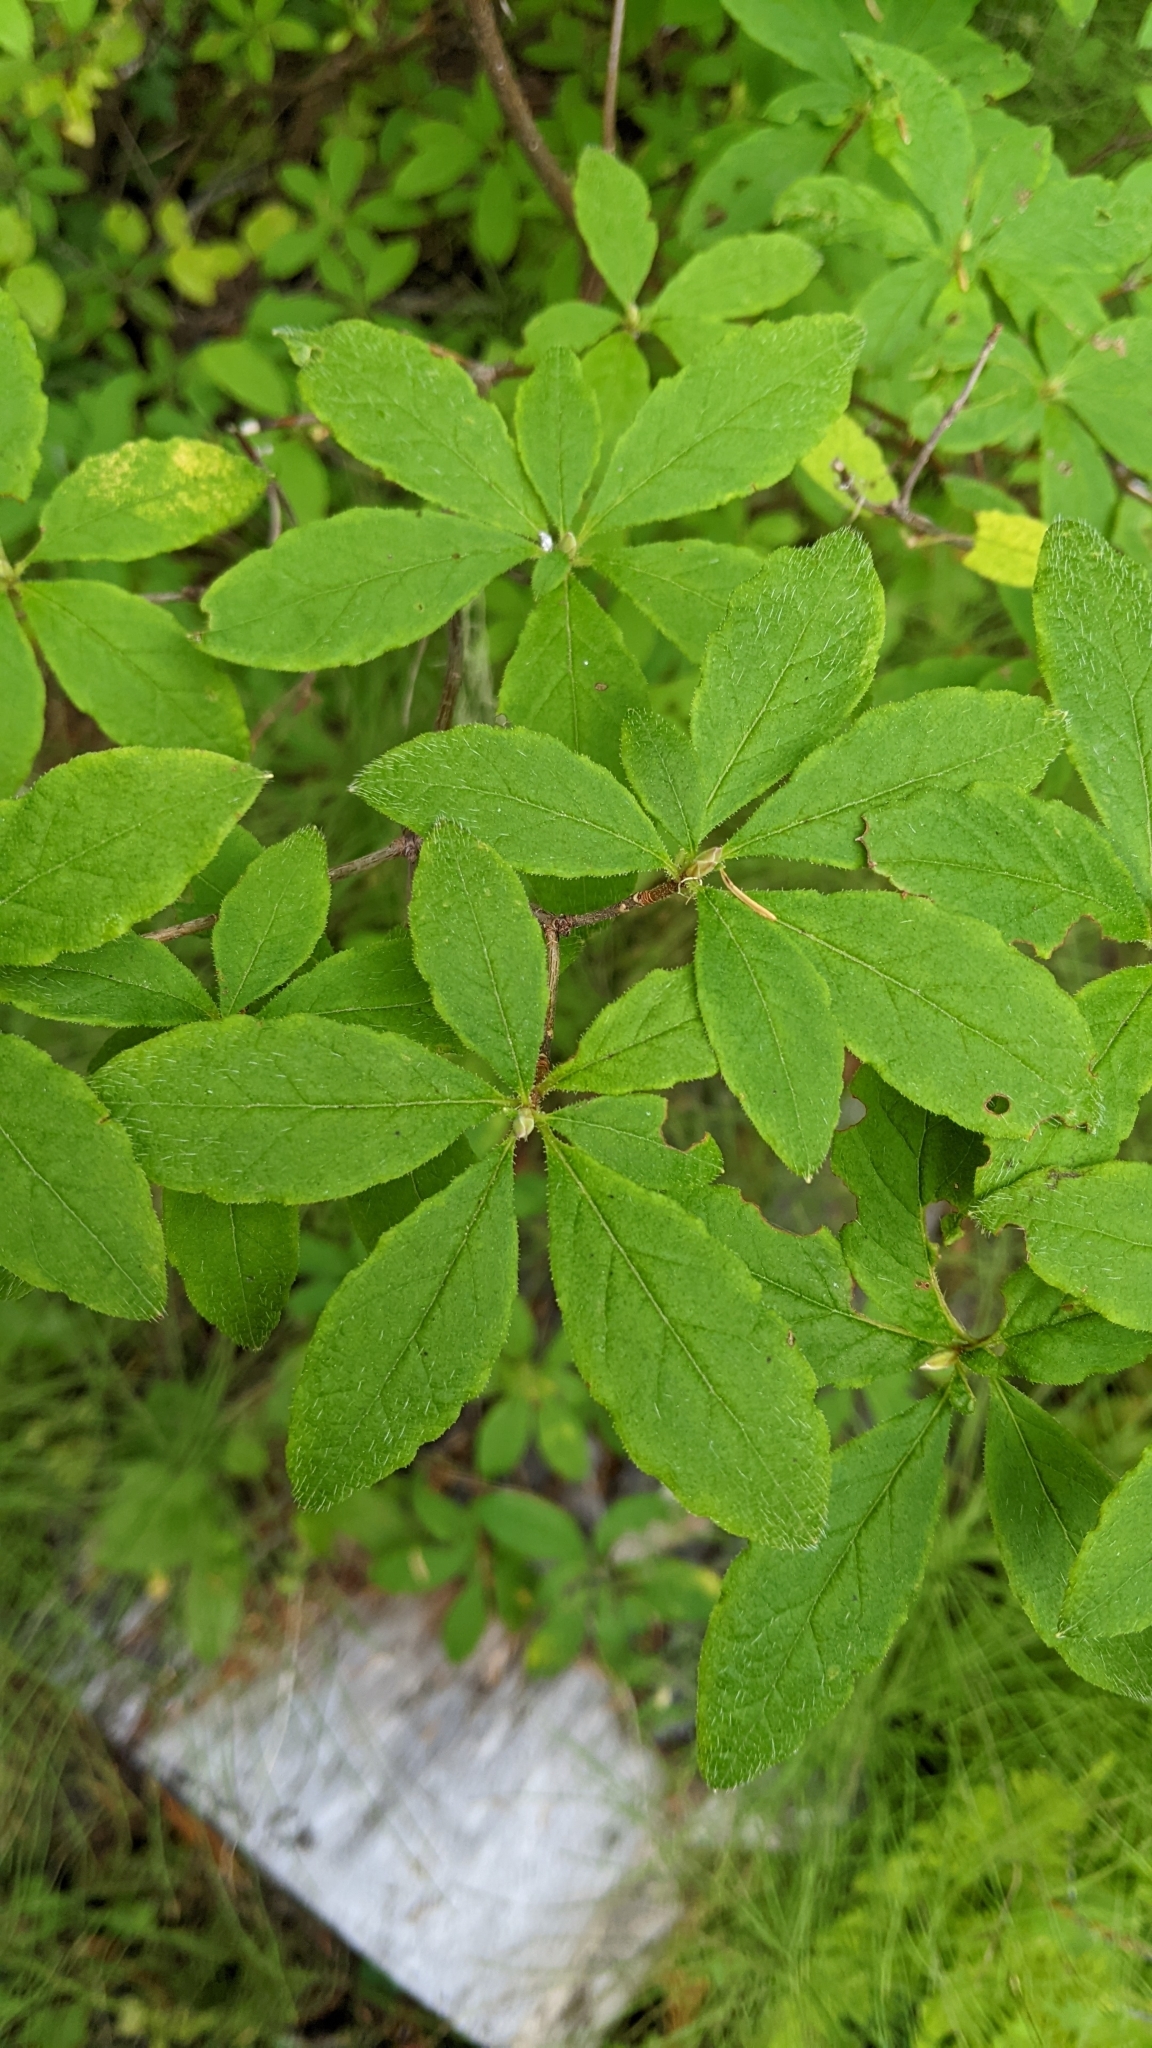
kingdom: Plantae
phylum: Tracheophyta
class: Magnoliopsida
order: Ericales
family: Ericaceae
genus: Rhododendron
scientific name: Rhododendron menziesii
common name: Pacific menziesia
